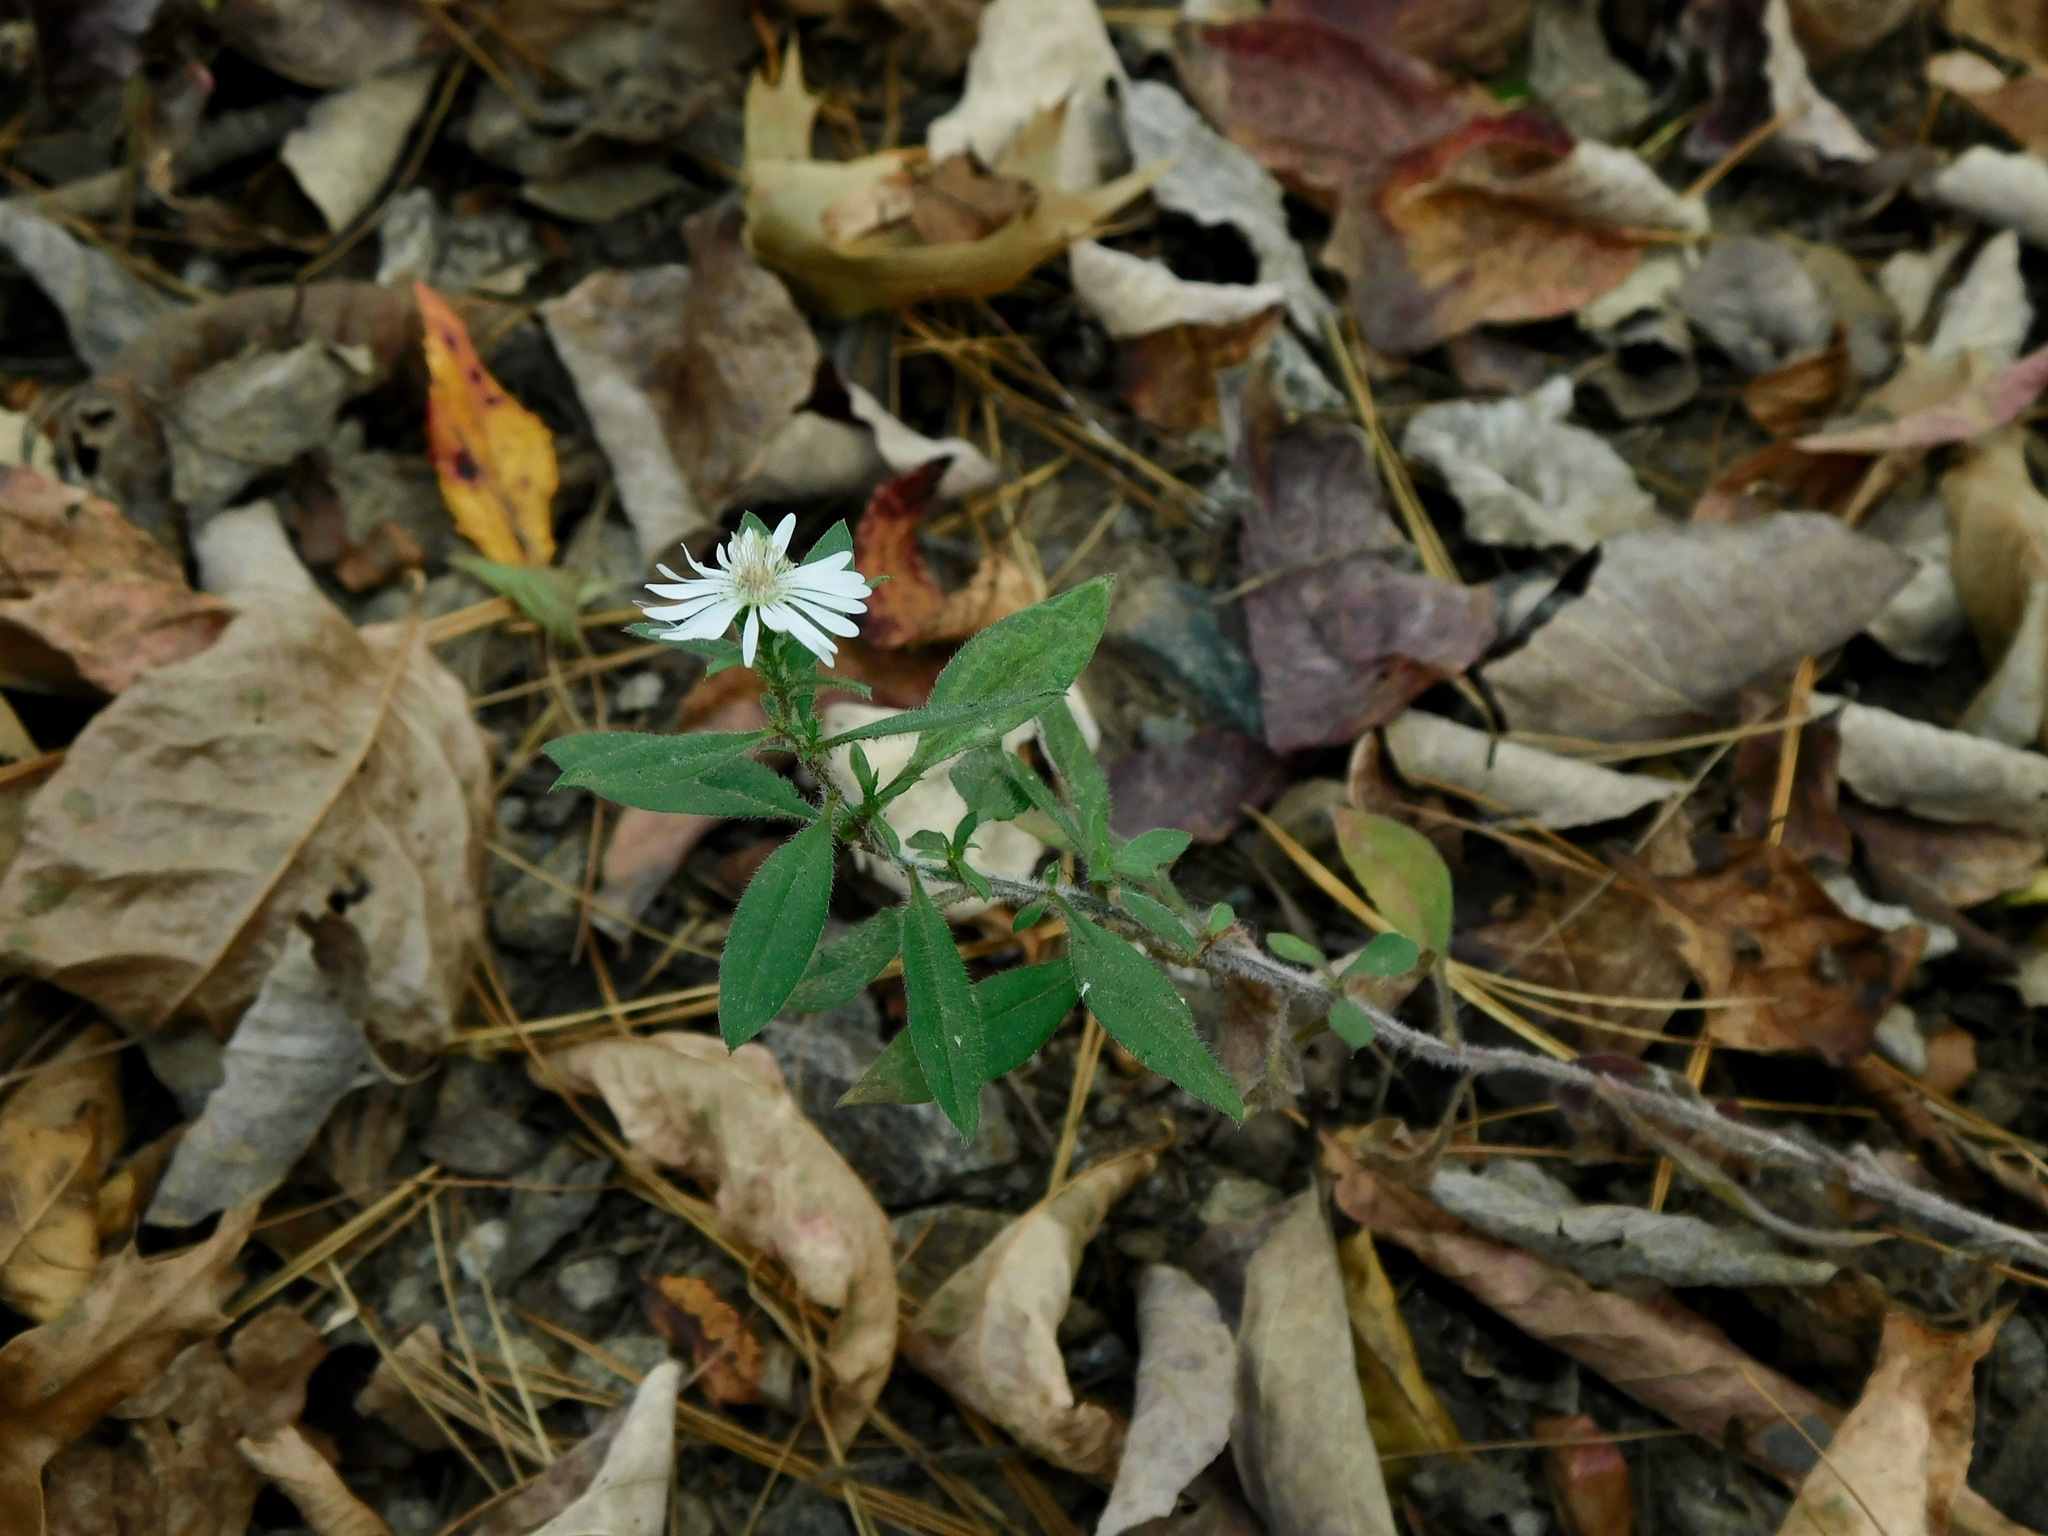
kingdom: Plantae
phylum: Tracheophyta
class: Magnoliopsida
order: Asterales
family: Asteraceae
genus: Symphyotrichum
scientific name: Symphyotrichum pilosum
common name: Awl aster
